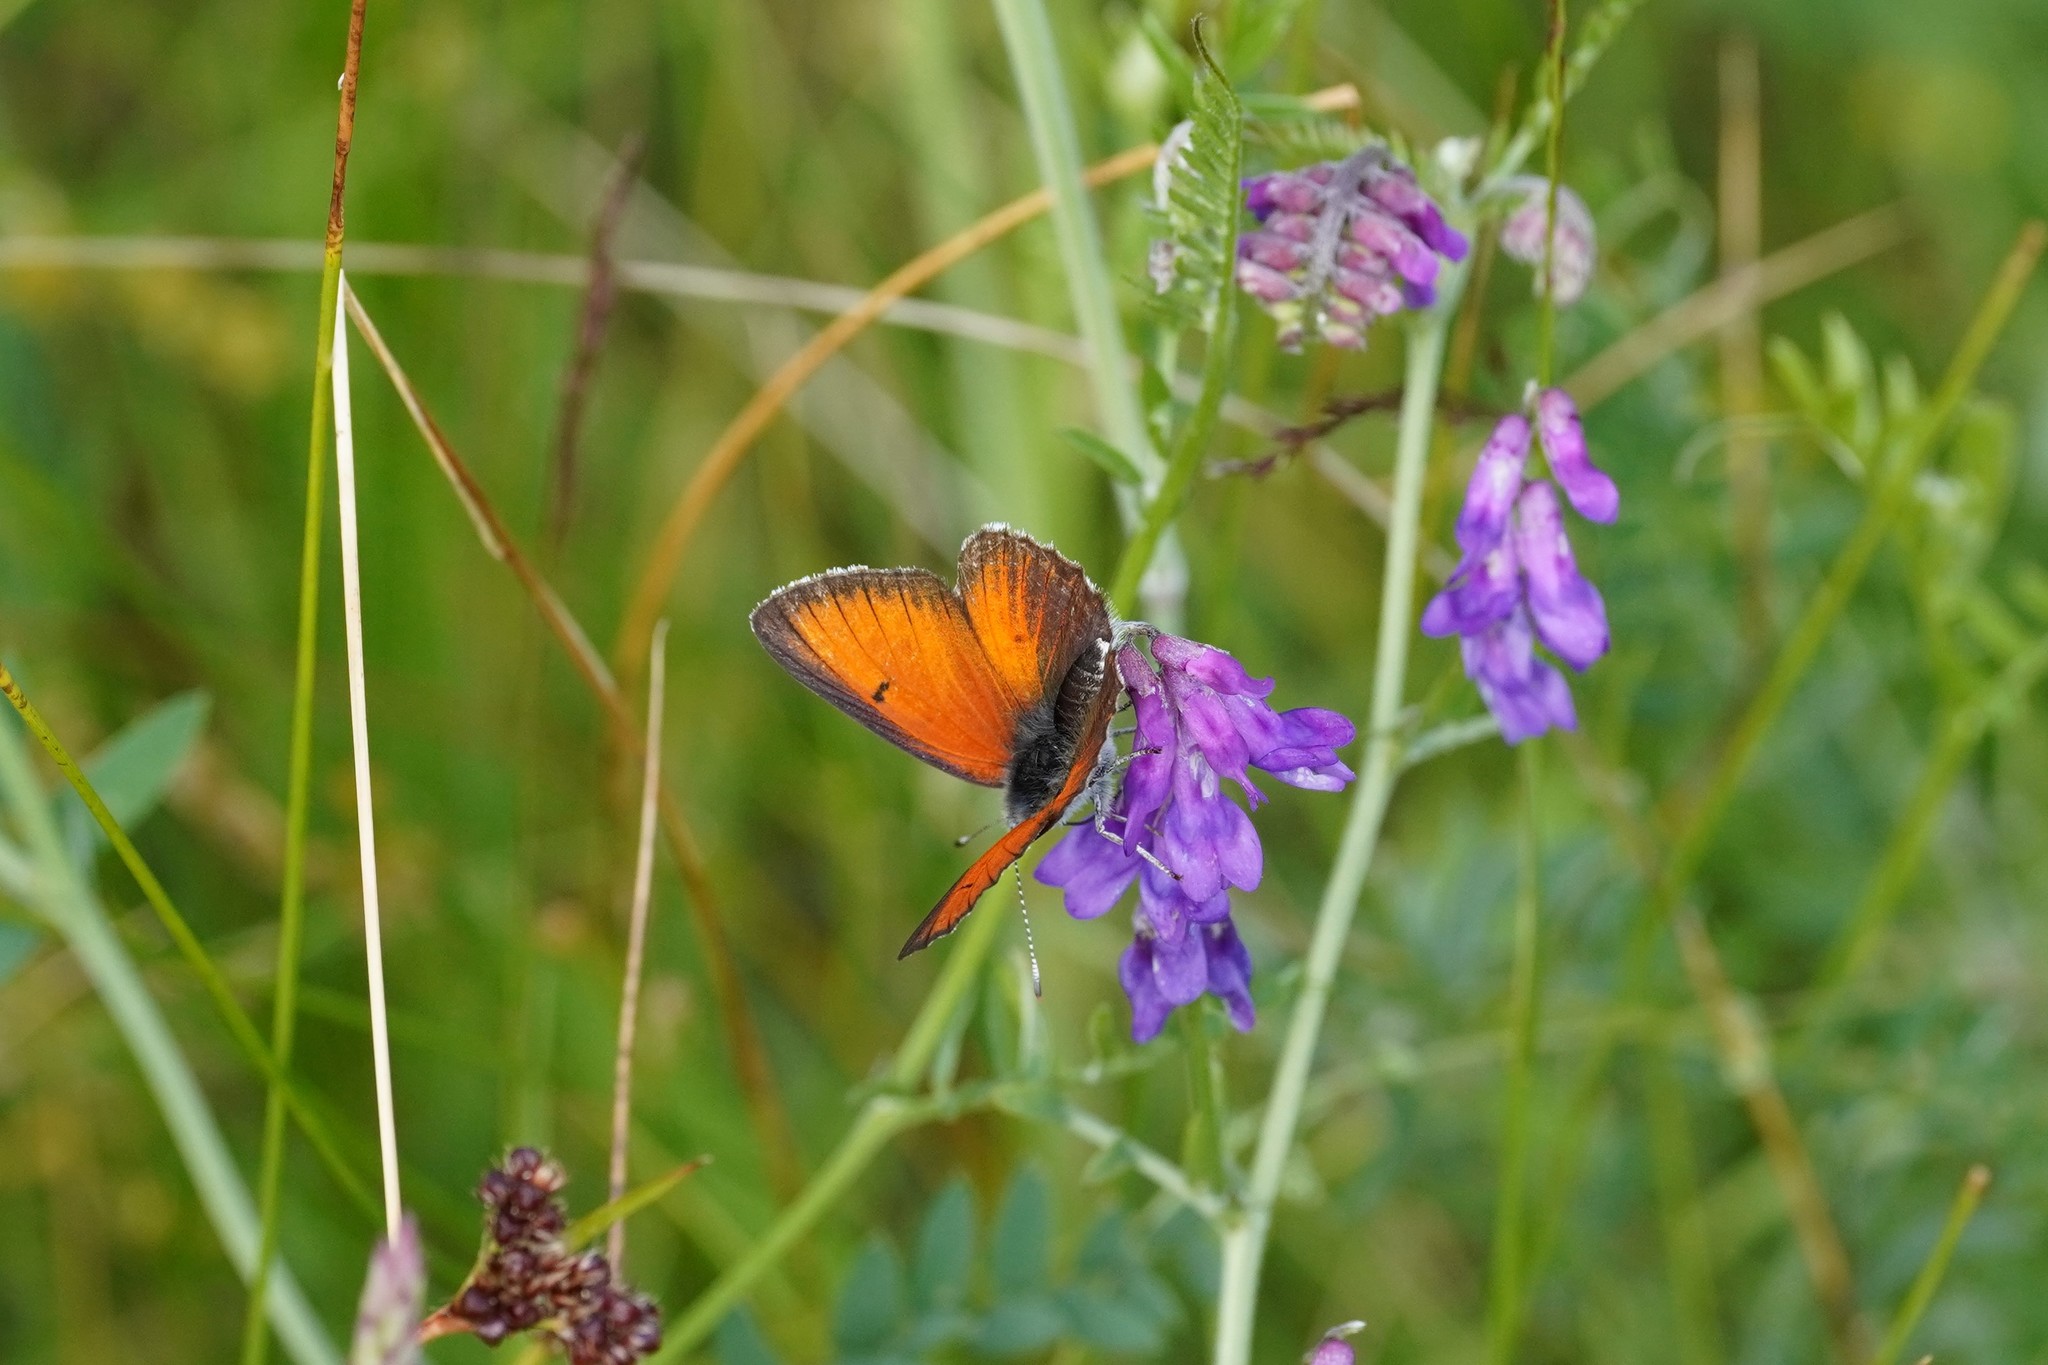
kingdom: Animalia
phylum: Arthropoda
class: Insecta
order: Lepidoptera
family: Lycaenidae
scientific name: Lycaenidae
